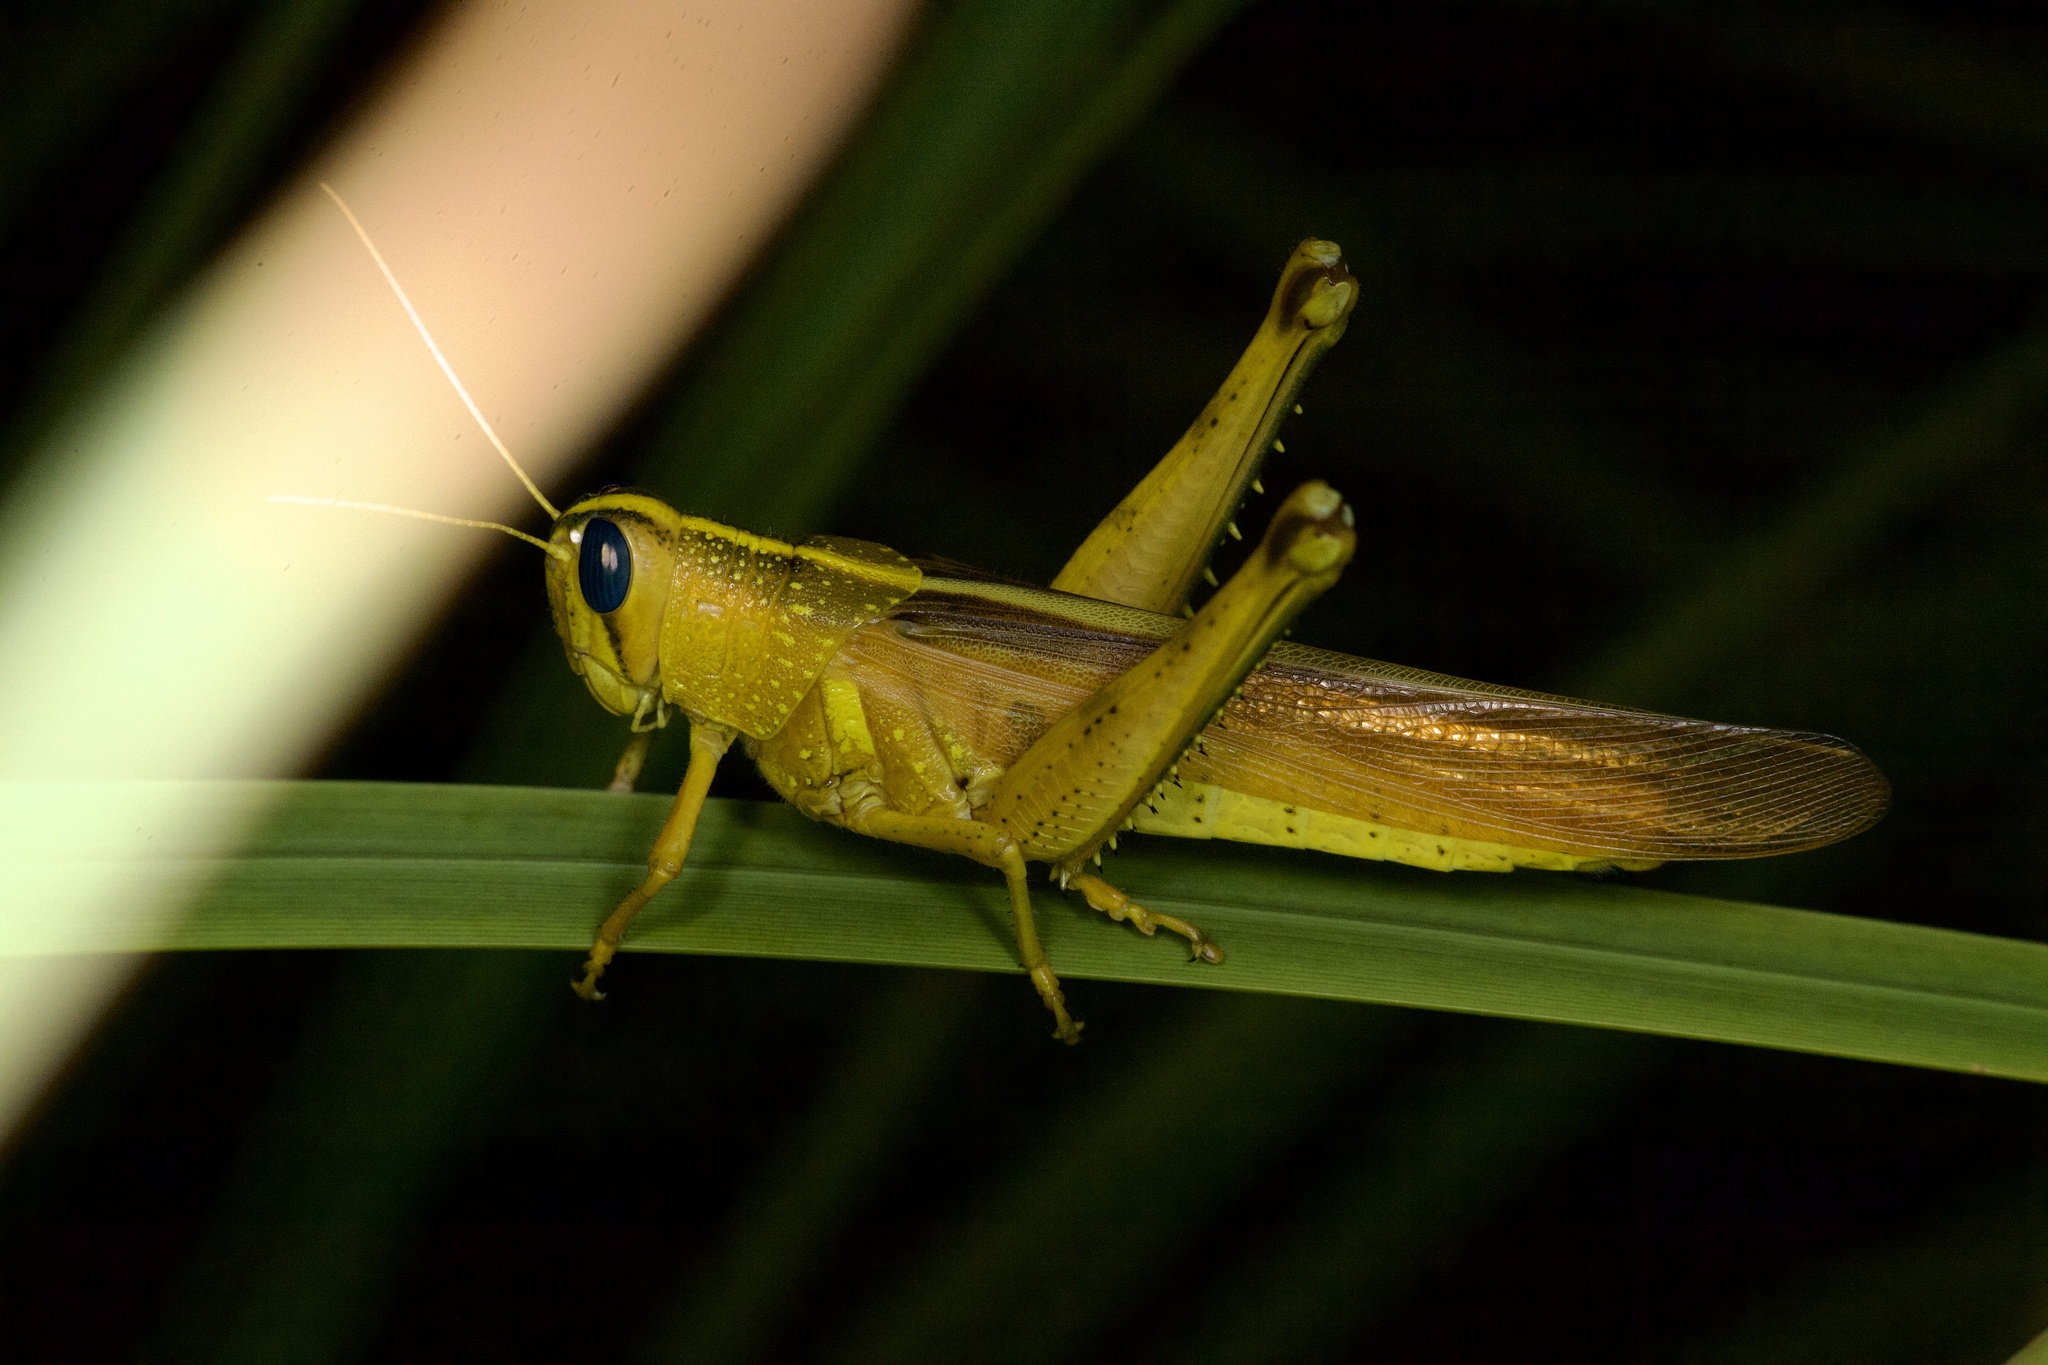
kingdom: Animalia
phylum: Arthropoda
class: Insecta
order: Orthoptera
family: Acrididae
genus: Schistocerca
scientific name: Schistocerca lineata
